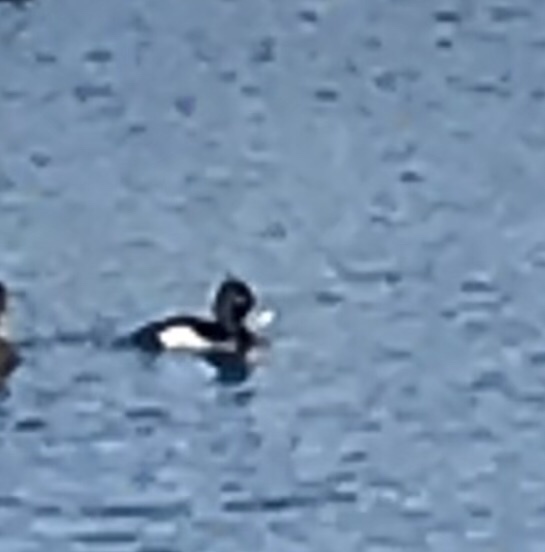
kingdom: Animalia
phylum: Chordata
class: Aves
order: Anseriformes
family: Anatidae
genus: Aythya
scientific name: Aythya collaris
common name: Ring-necked duck
